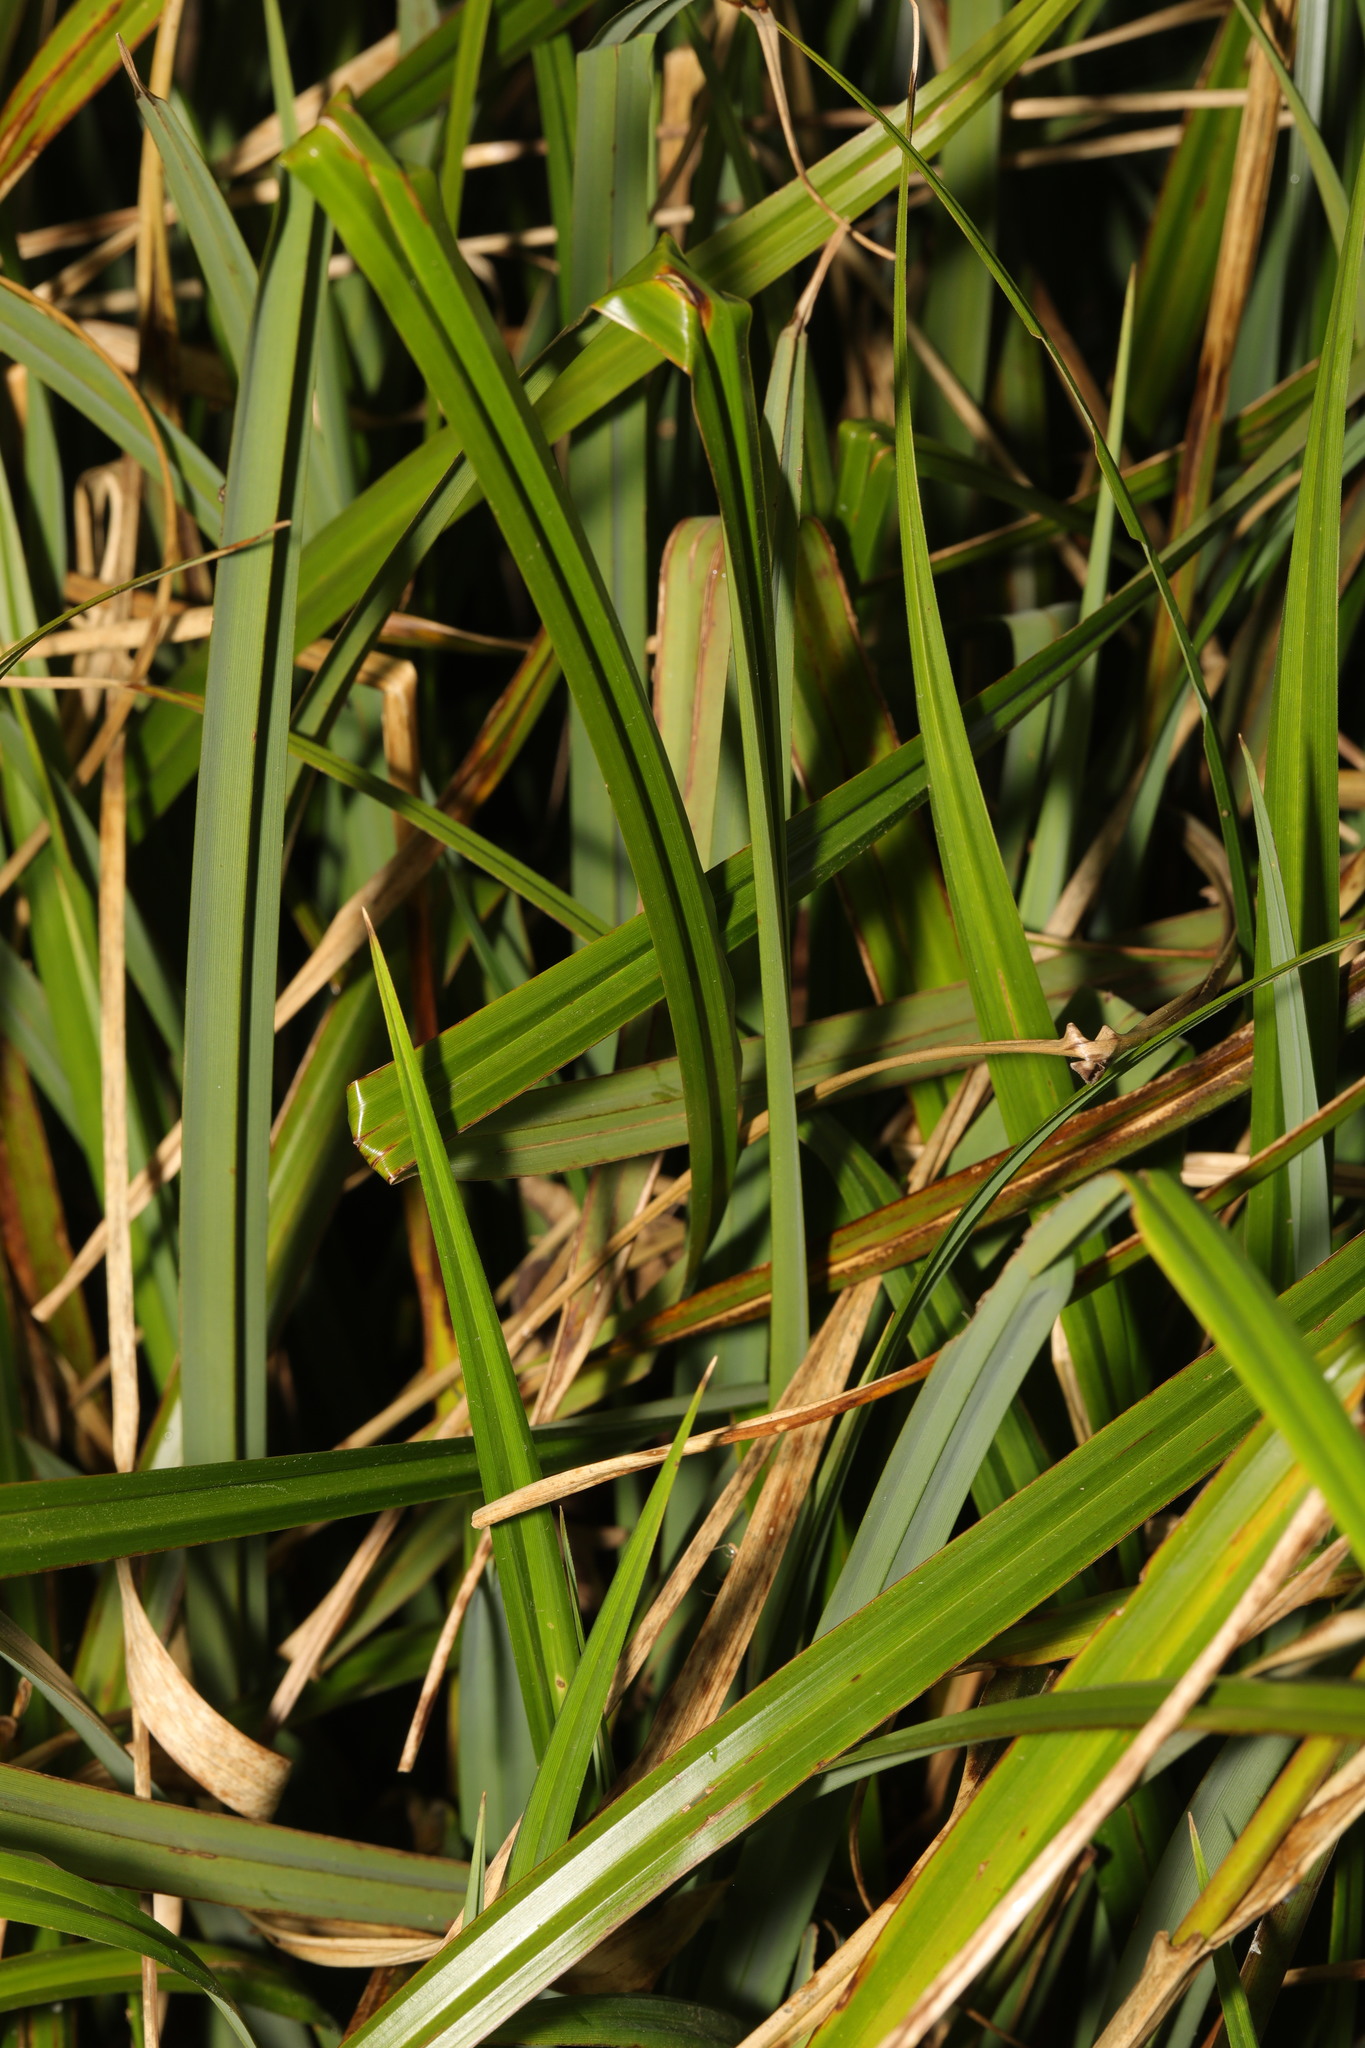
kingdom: Plantae
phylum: Tracheophyta
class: Liliopsida
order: Poales
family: Cyperaceae
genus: Carex
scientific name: Carex pendula
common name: Pendulous sedge
